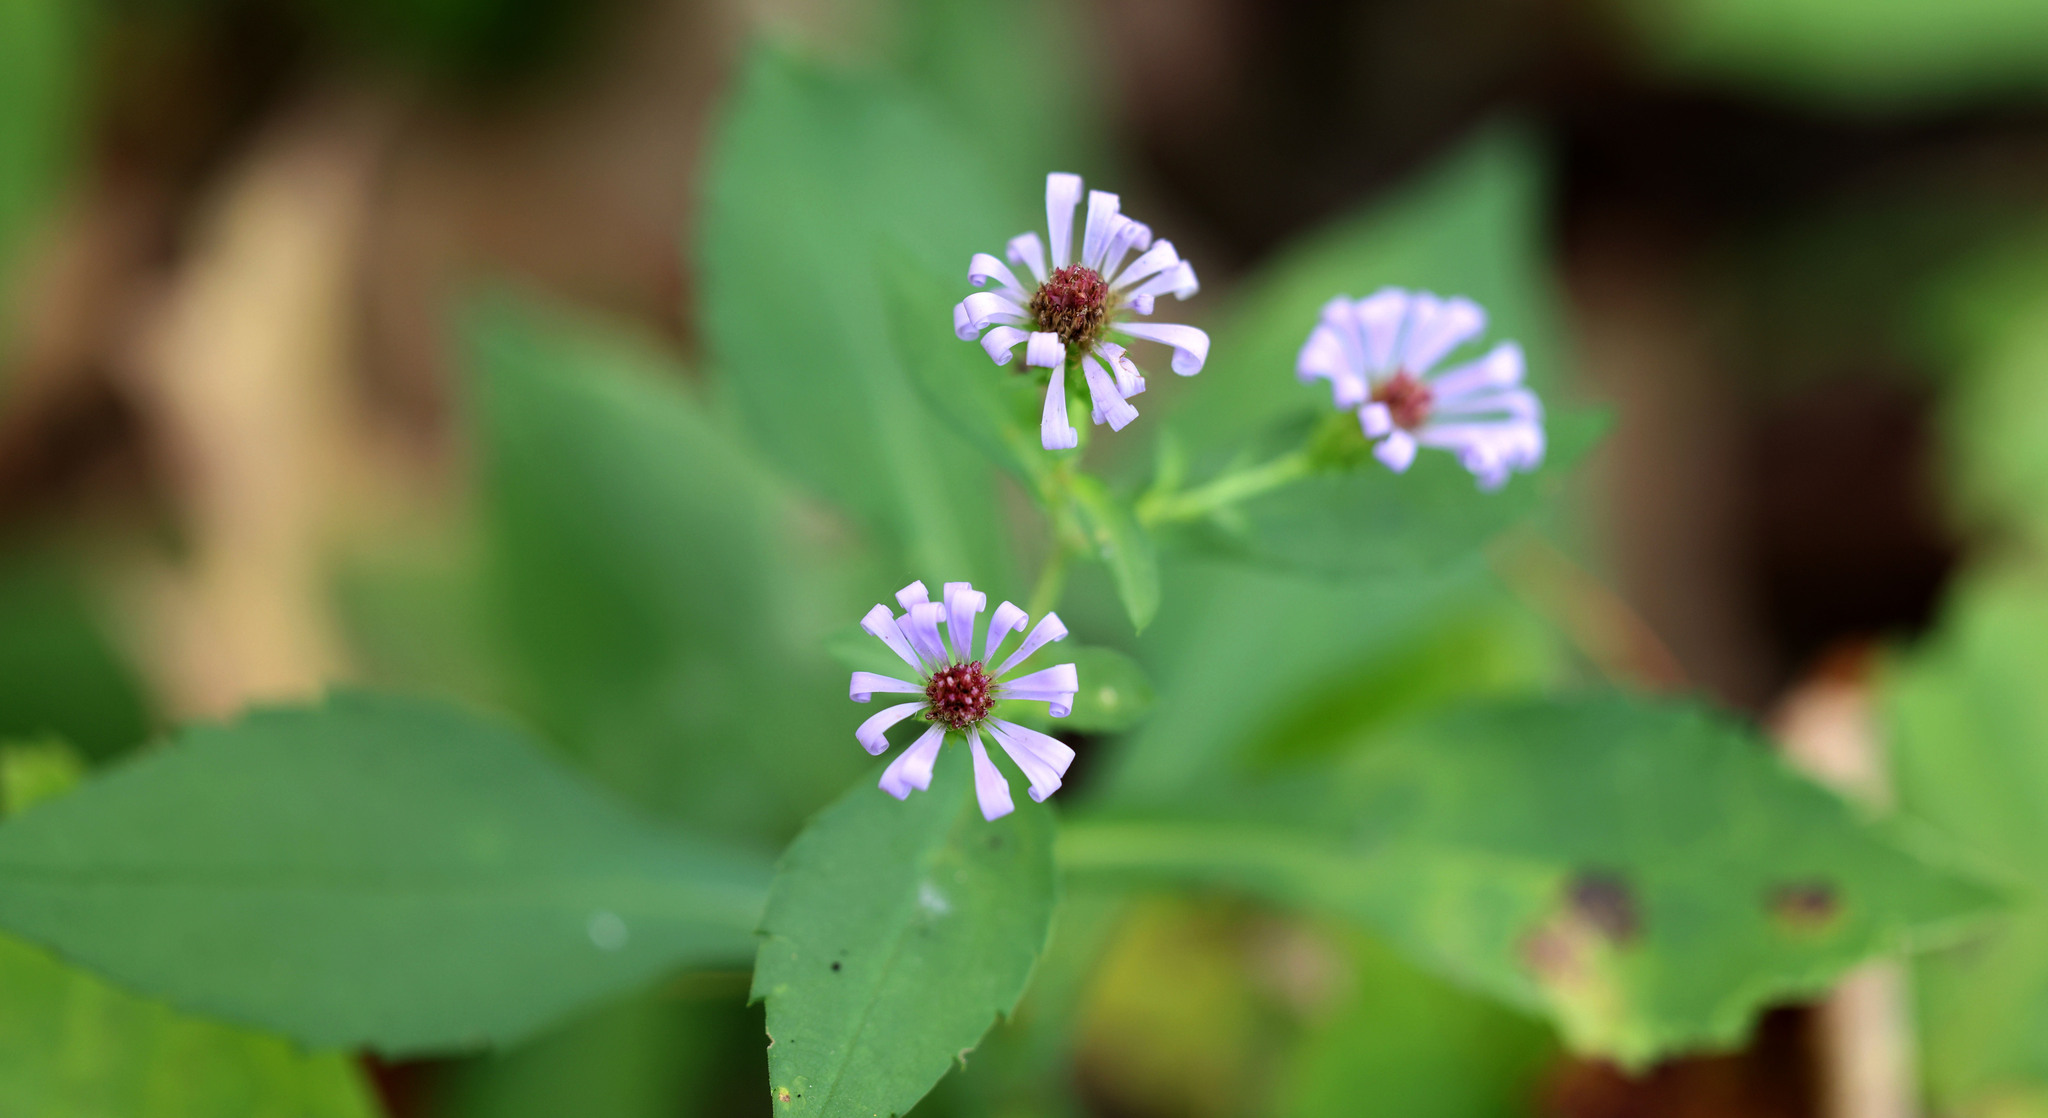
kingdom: Plantae
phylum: Tracheophyta
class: Magnoliopsida
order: Asterales
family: Asteraceae
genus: Symphyotrichum
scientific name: Symphyotrichum prenanthoides
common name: Crooked-stem aster
